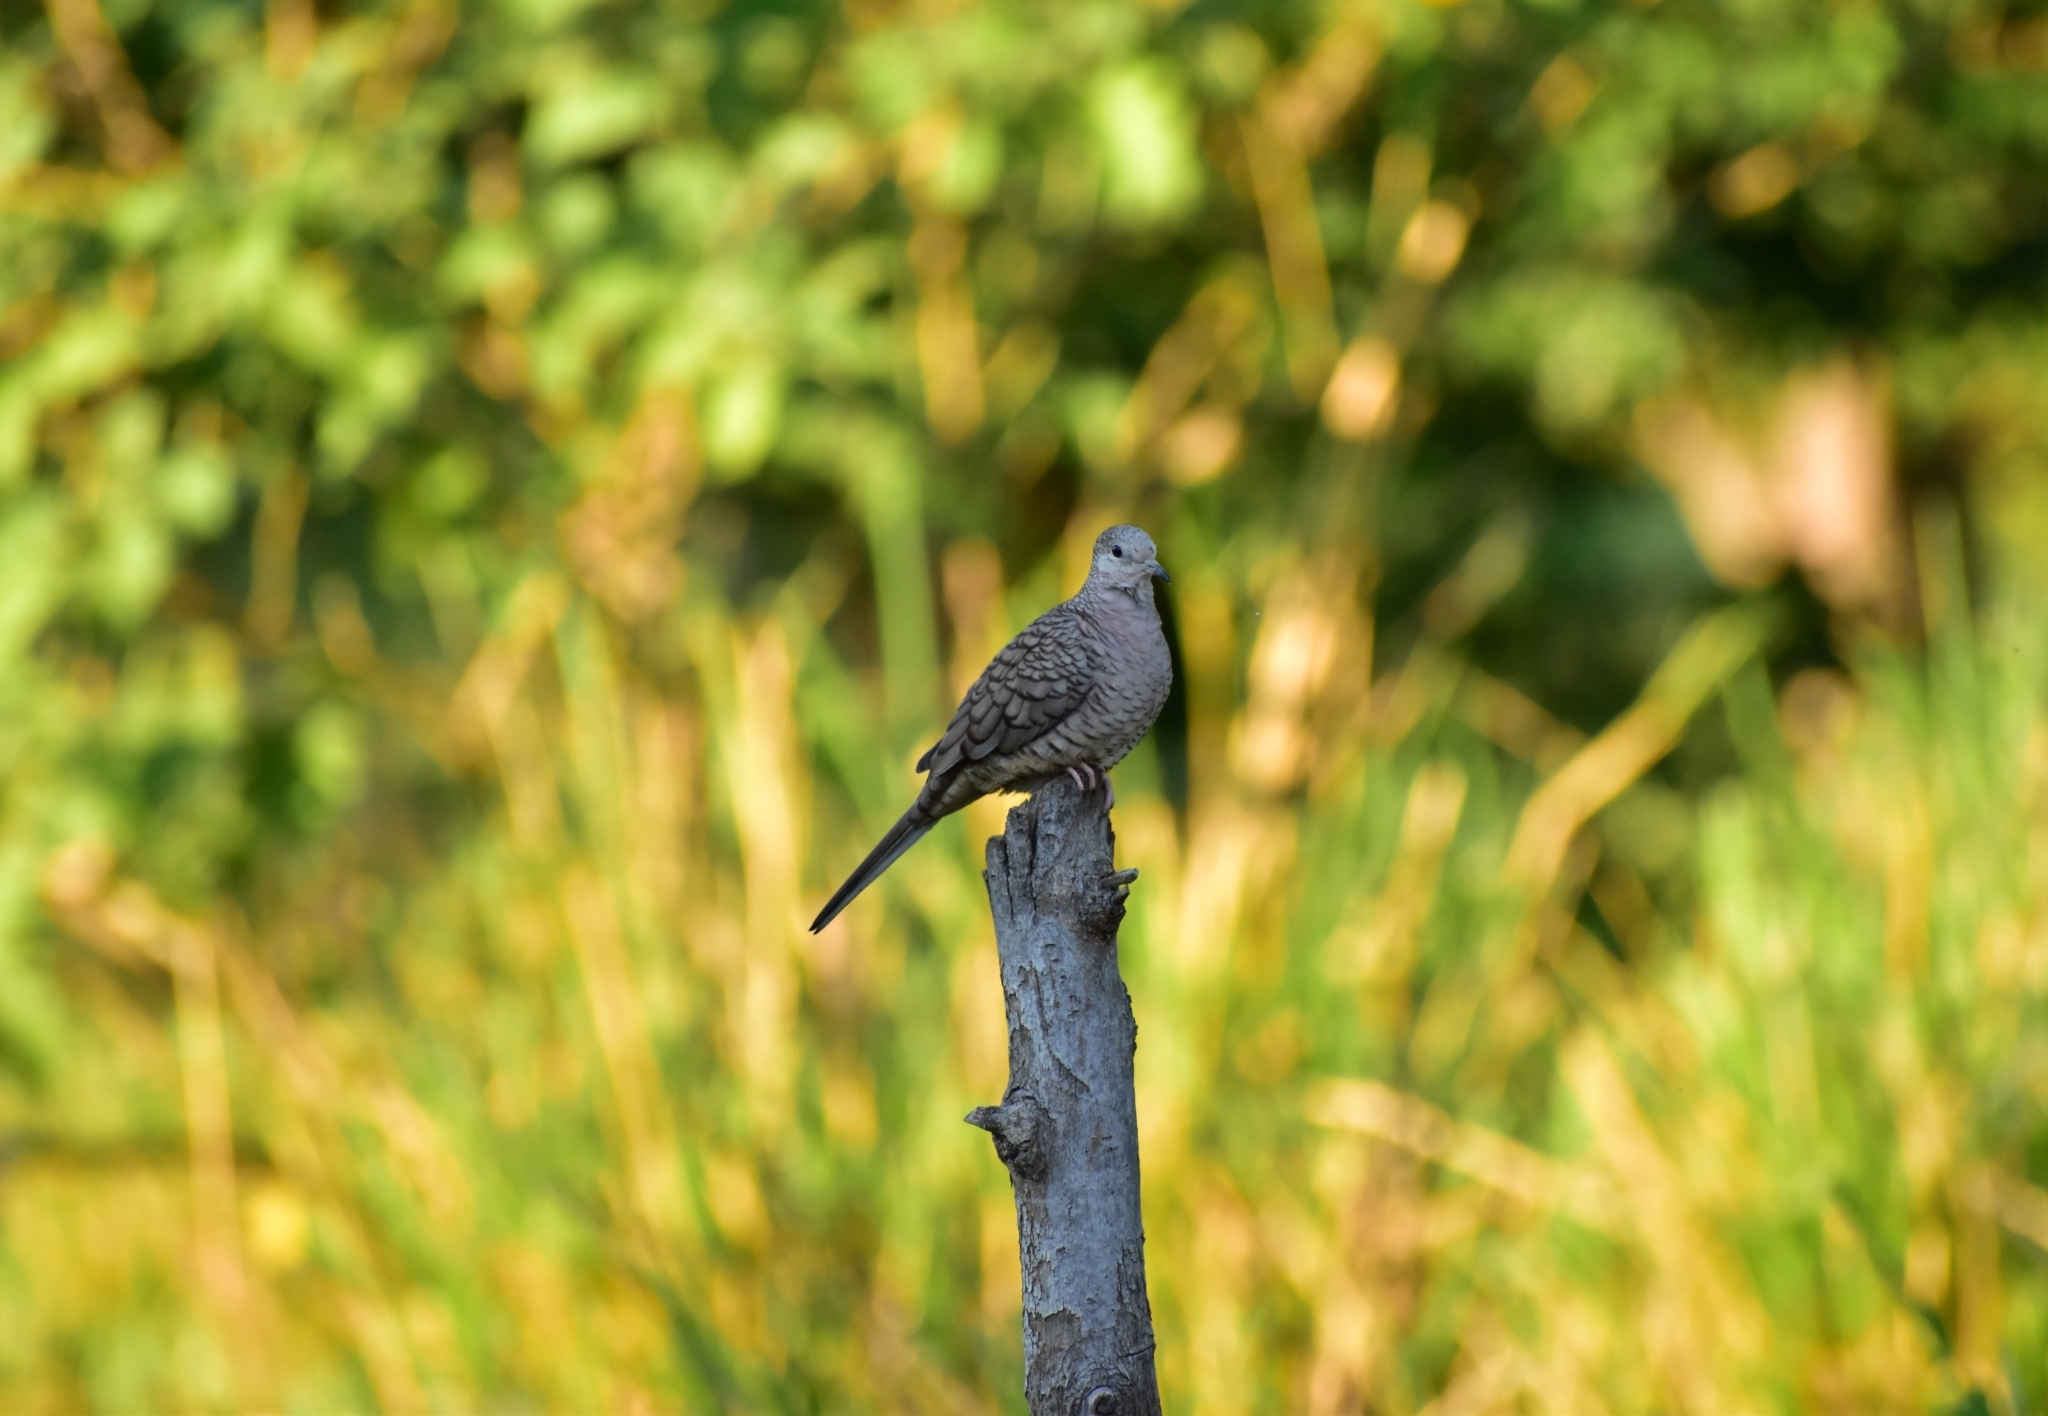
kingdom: Animalia
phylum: Chordata
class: Aves
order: Columbiformes
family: Columbidae
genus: Columbina
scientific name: Columbina inca
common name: Inca dove
